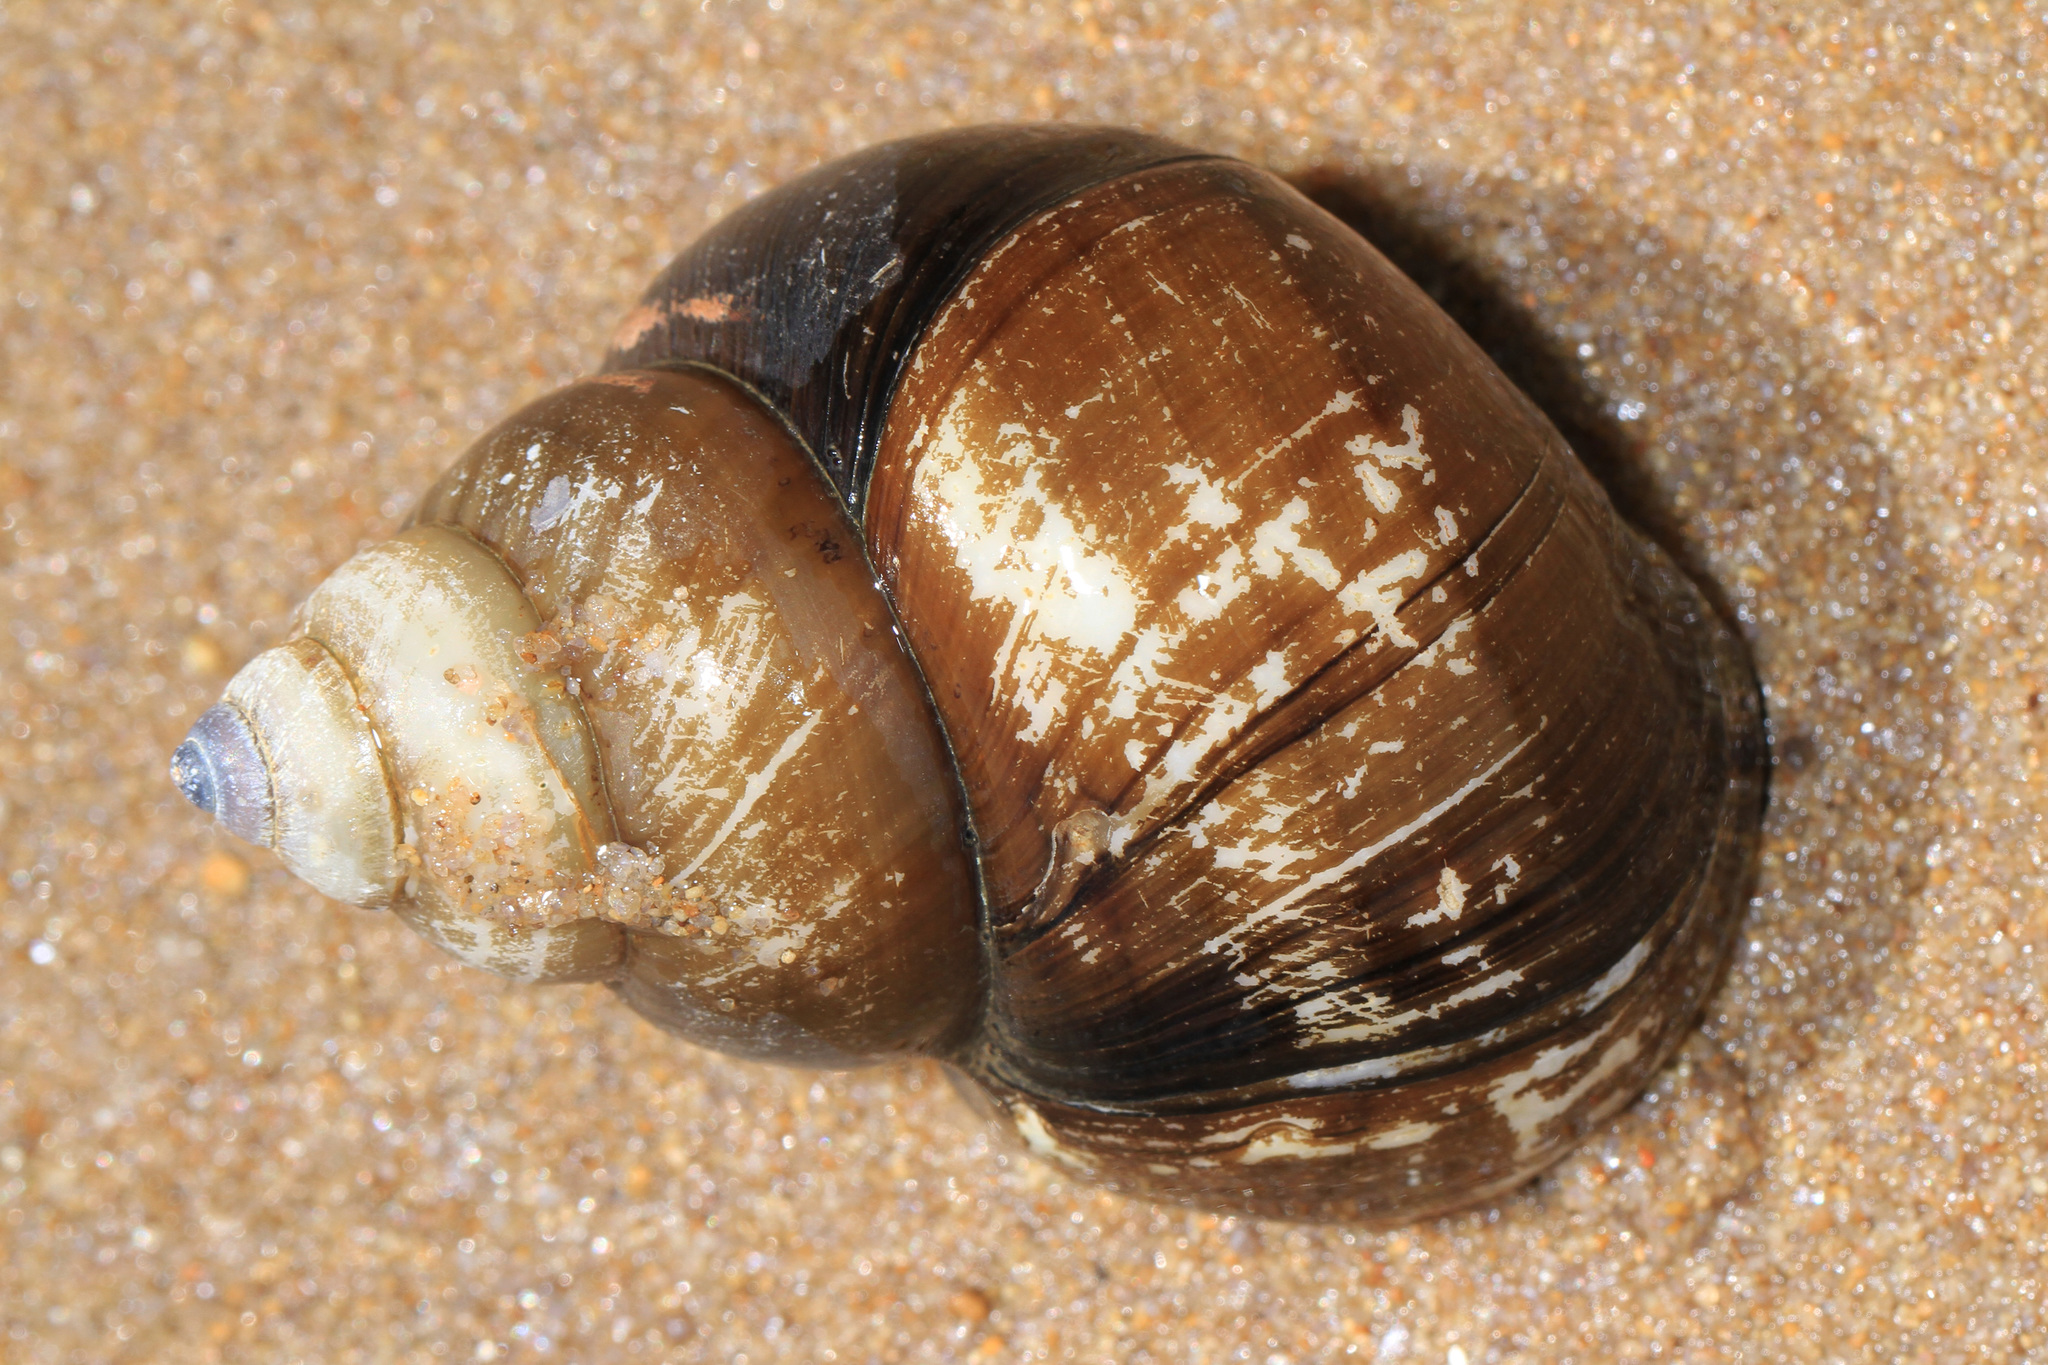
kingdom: Animalia
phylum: Mollusca
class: Gastropoda
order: Architaenioglossa
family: Viviparidae
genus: Cipangopaludina
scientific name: Cipangopaludina japonica
